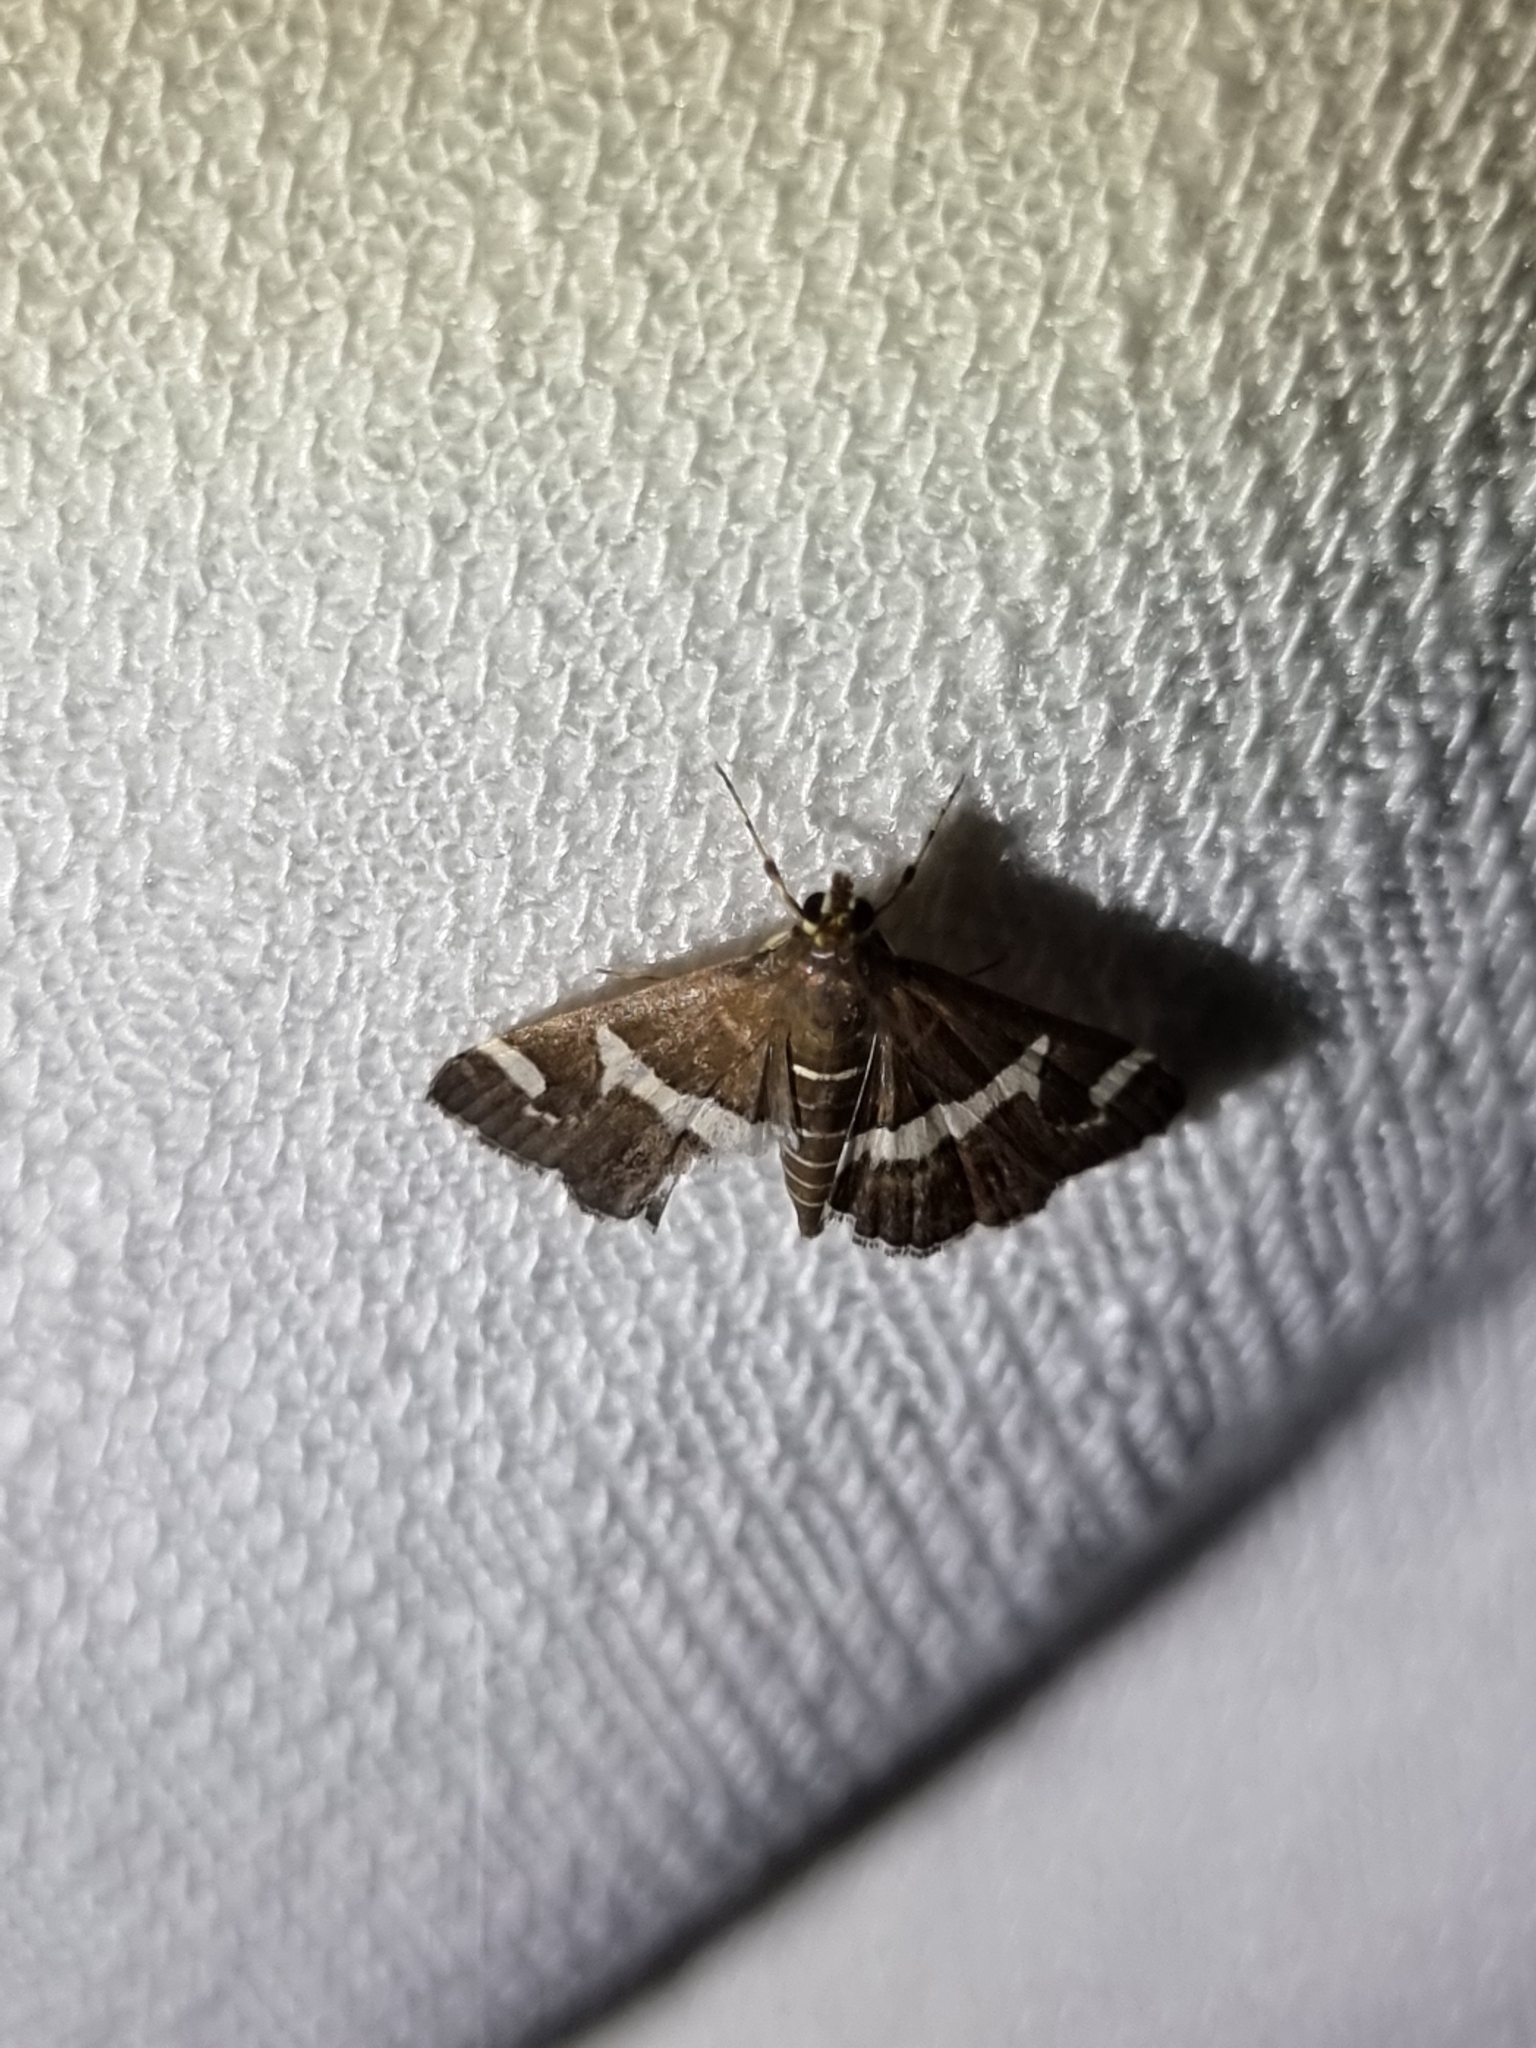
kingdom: Animalia
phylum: Arthropoda
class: Insecta
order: Lepidoptera
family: Crambidae
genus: Spoladea
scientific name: Spoladea recurvalis
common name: Beet webworm moth
